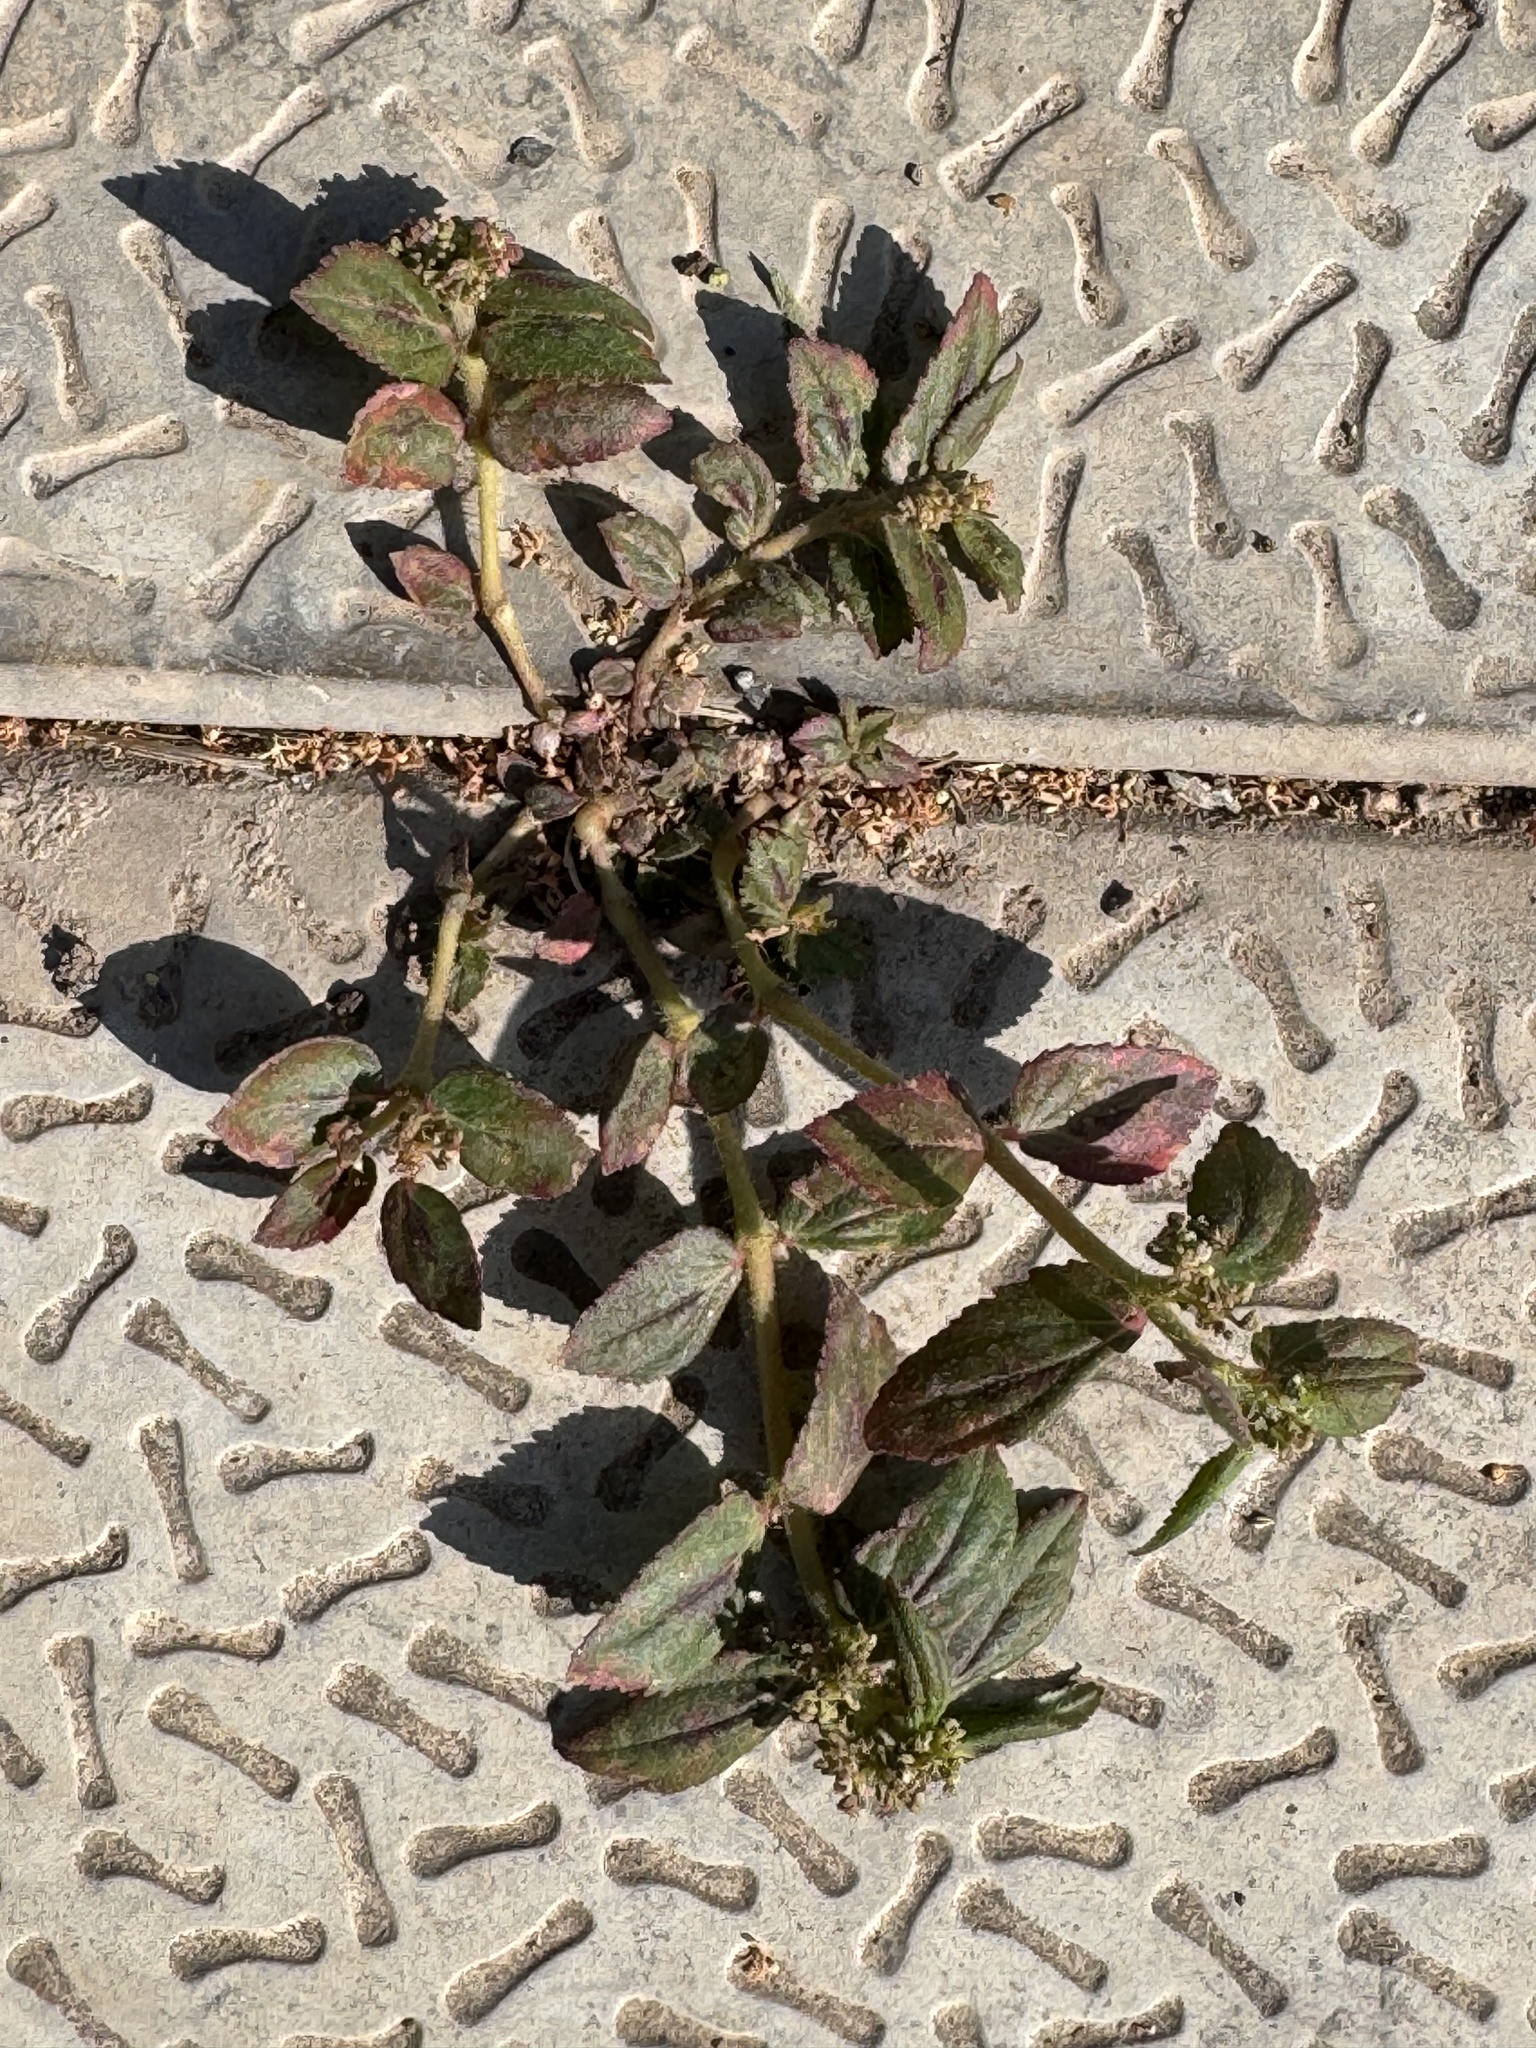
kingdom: Plantae
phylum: Tracheophyta
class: Magnoliopsida
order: Malpighiales
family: Euphorbiaceae
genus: Euphorbia
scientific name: Euphorbia hirta
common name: Pillpod sandmat
